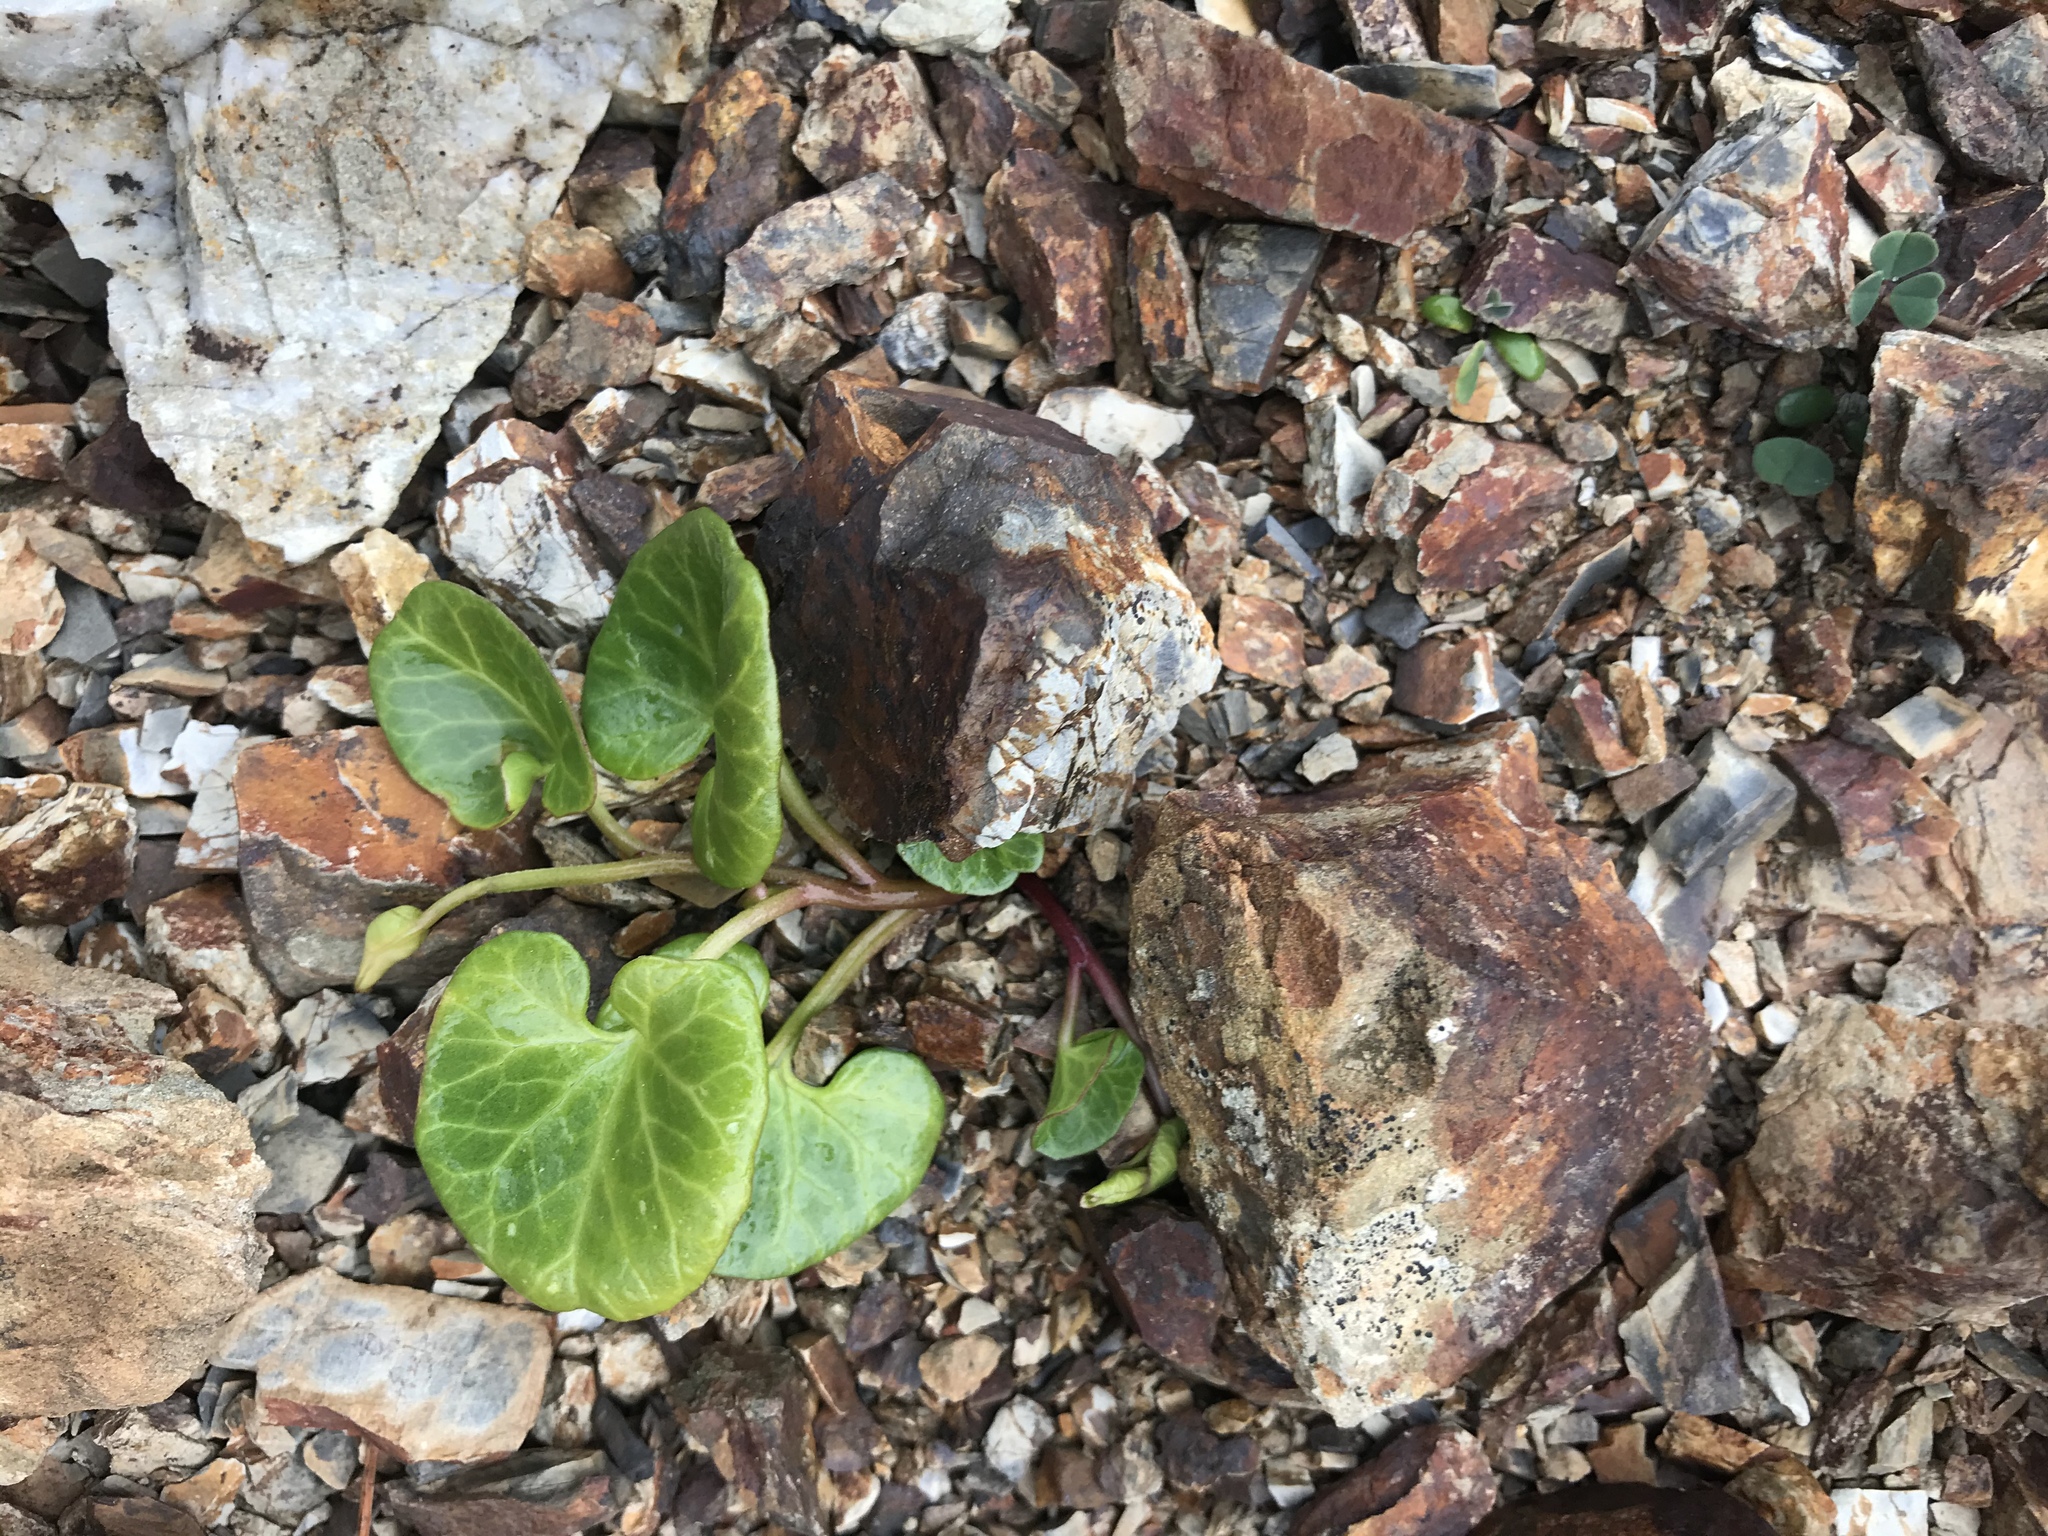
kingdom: Plantae
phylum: Tracheophyta
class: Magnoliopsida
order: Solanales
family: Convolvulaceae
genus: Calystegia
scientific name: Calystegia soldanella
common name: Sea bindweed
